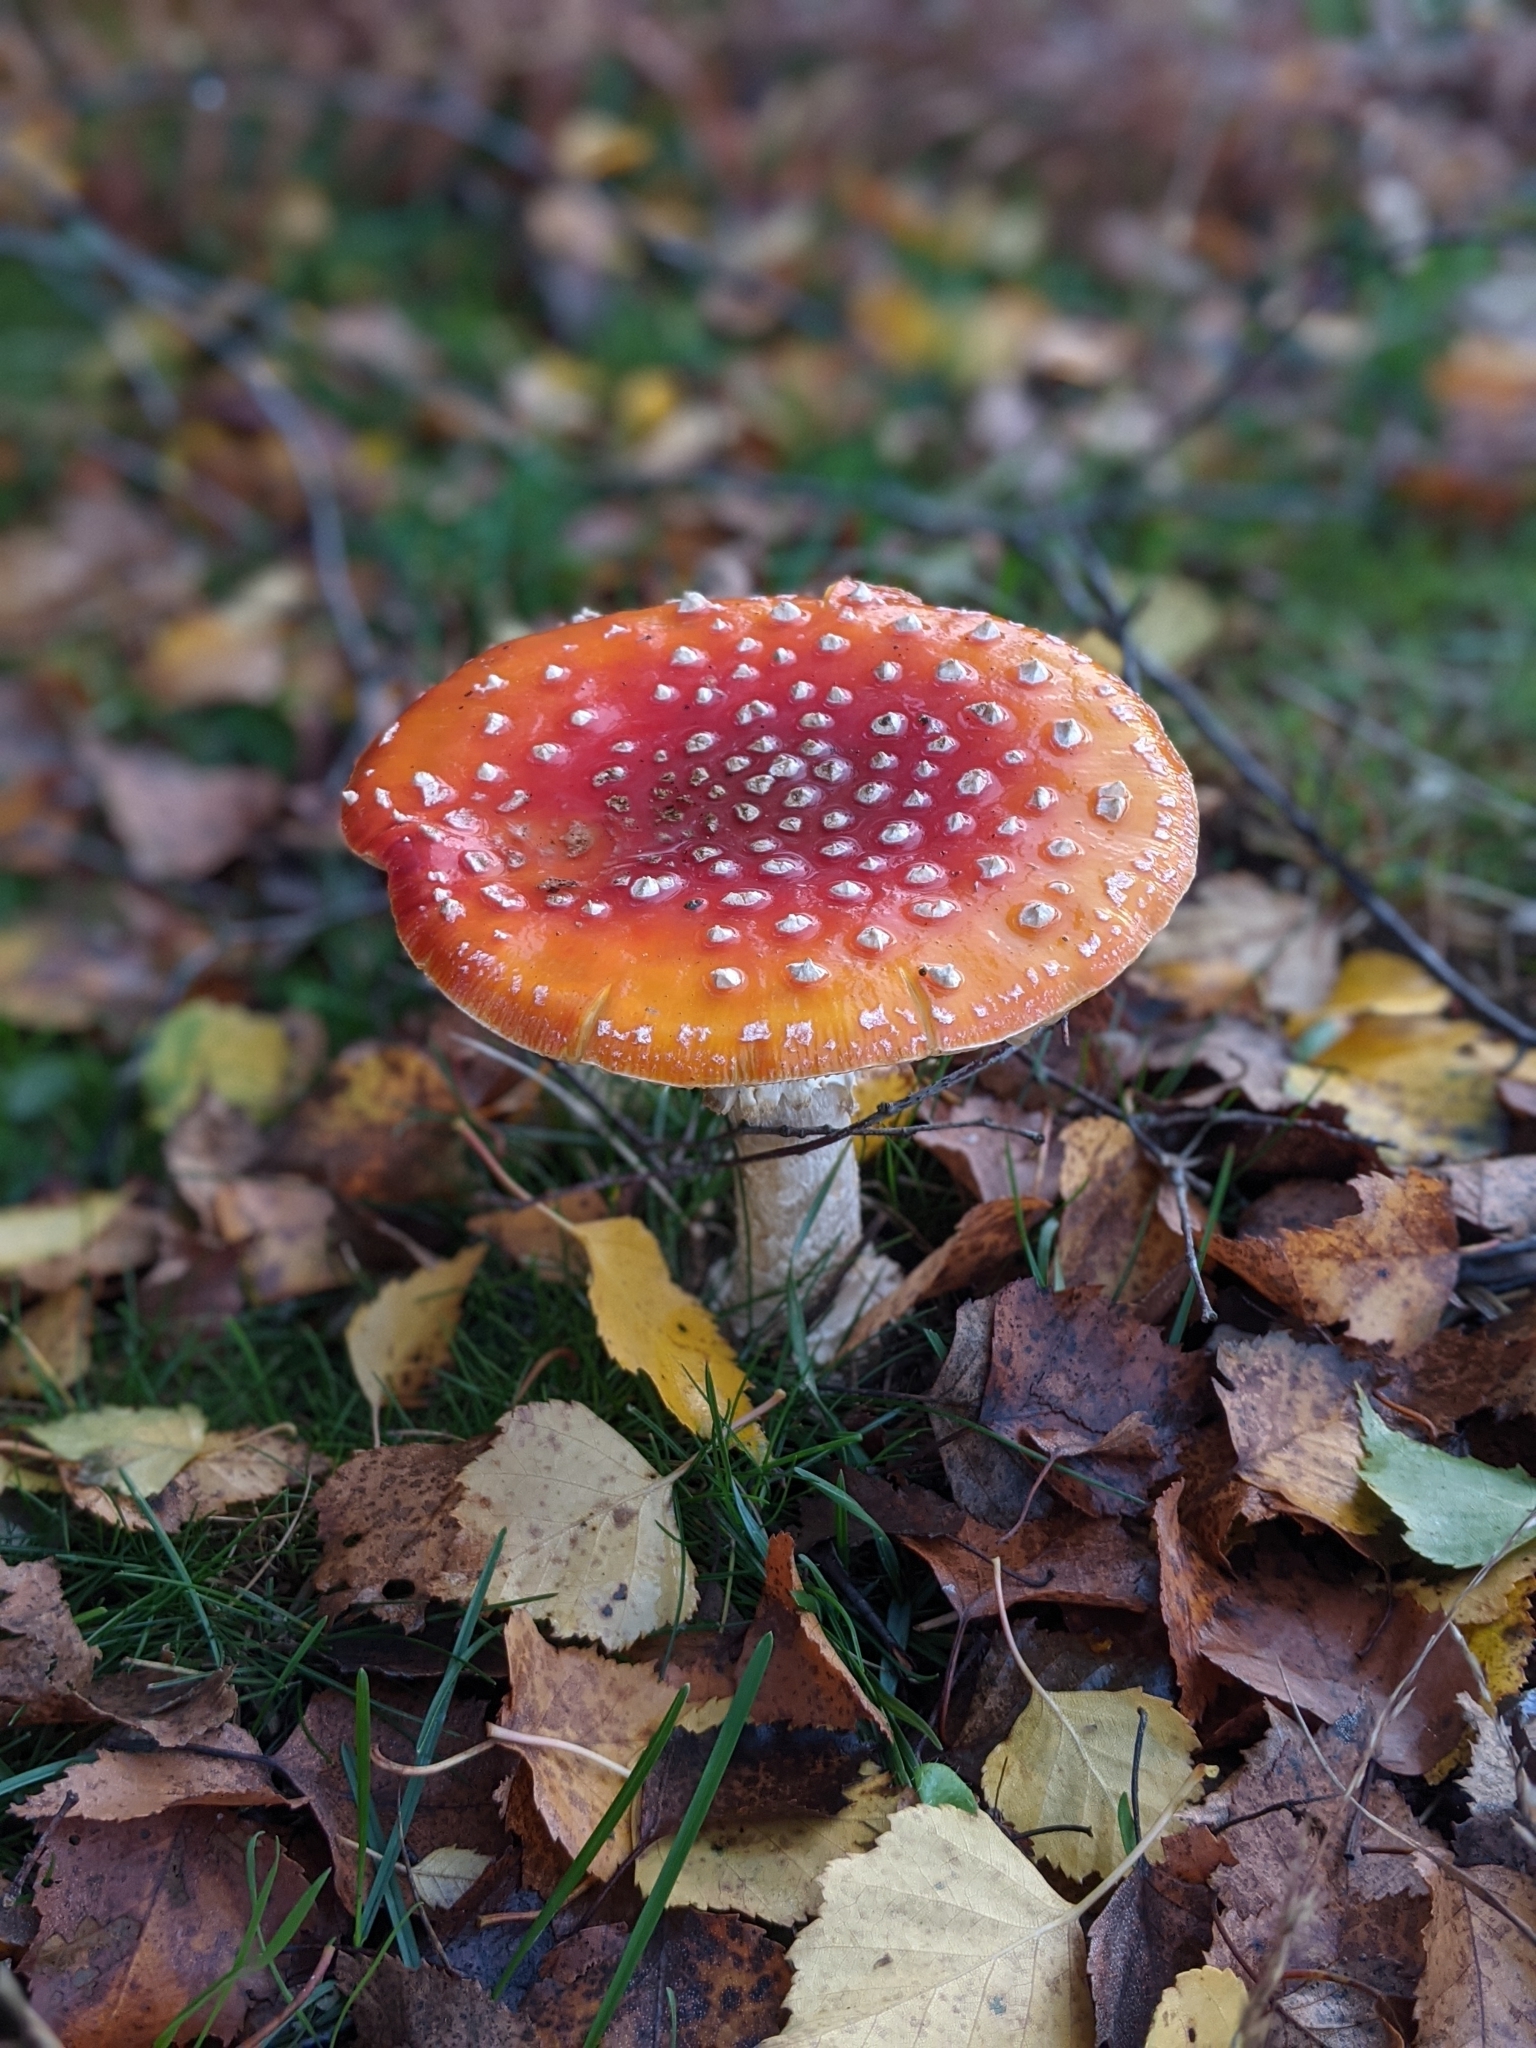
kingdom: Fungi
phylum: Basidiomycota
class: Agaricomycetes
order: Agaricales
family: Amanitaceae
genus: Amanita
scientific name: Amanita muscaria
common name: Fly agaric
